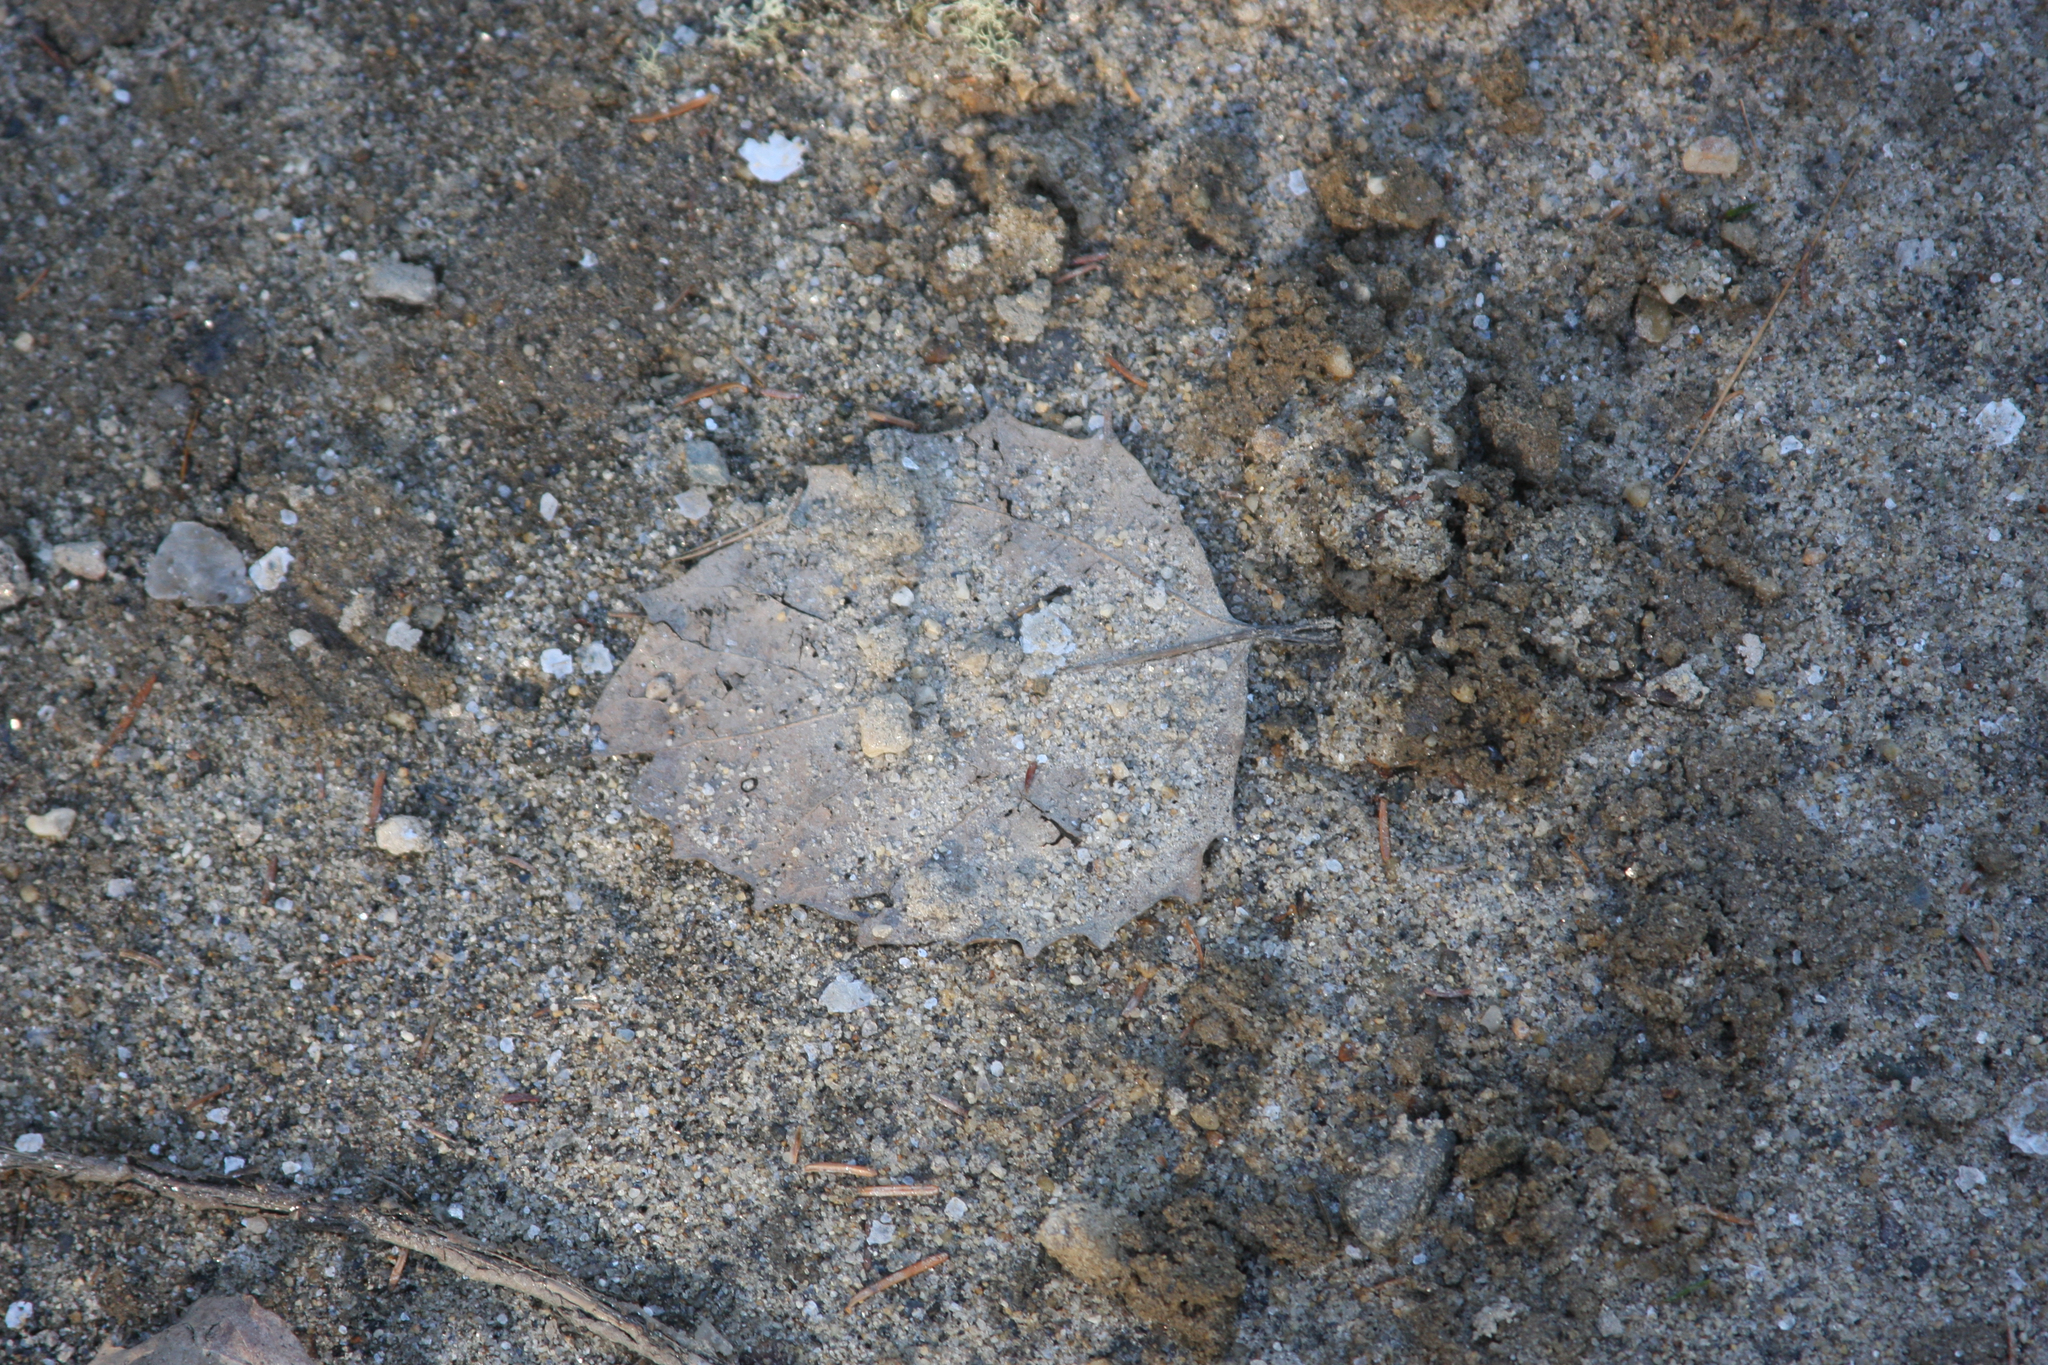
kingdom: Plantae
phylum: Tracheophyta
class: Magnoliopsida
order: Malpighiales
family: Salicaceae
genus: Populus
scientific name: Populus grandidentata
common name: Bigtooth aspen
